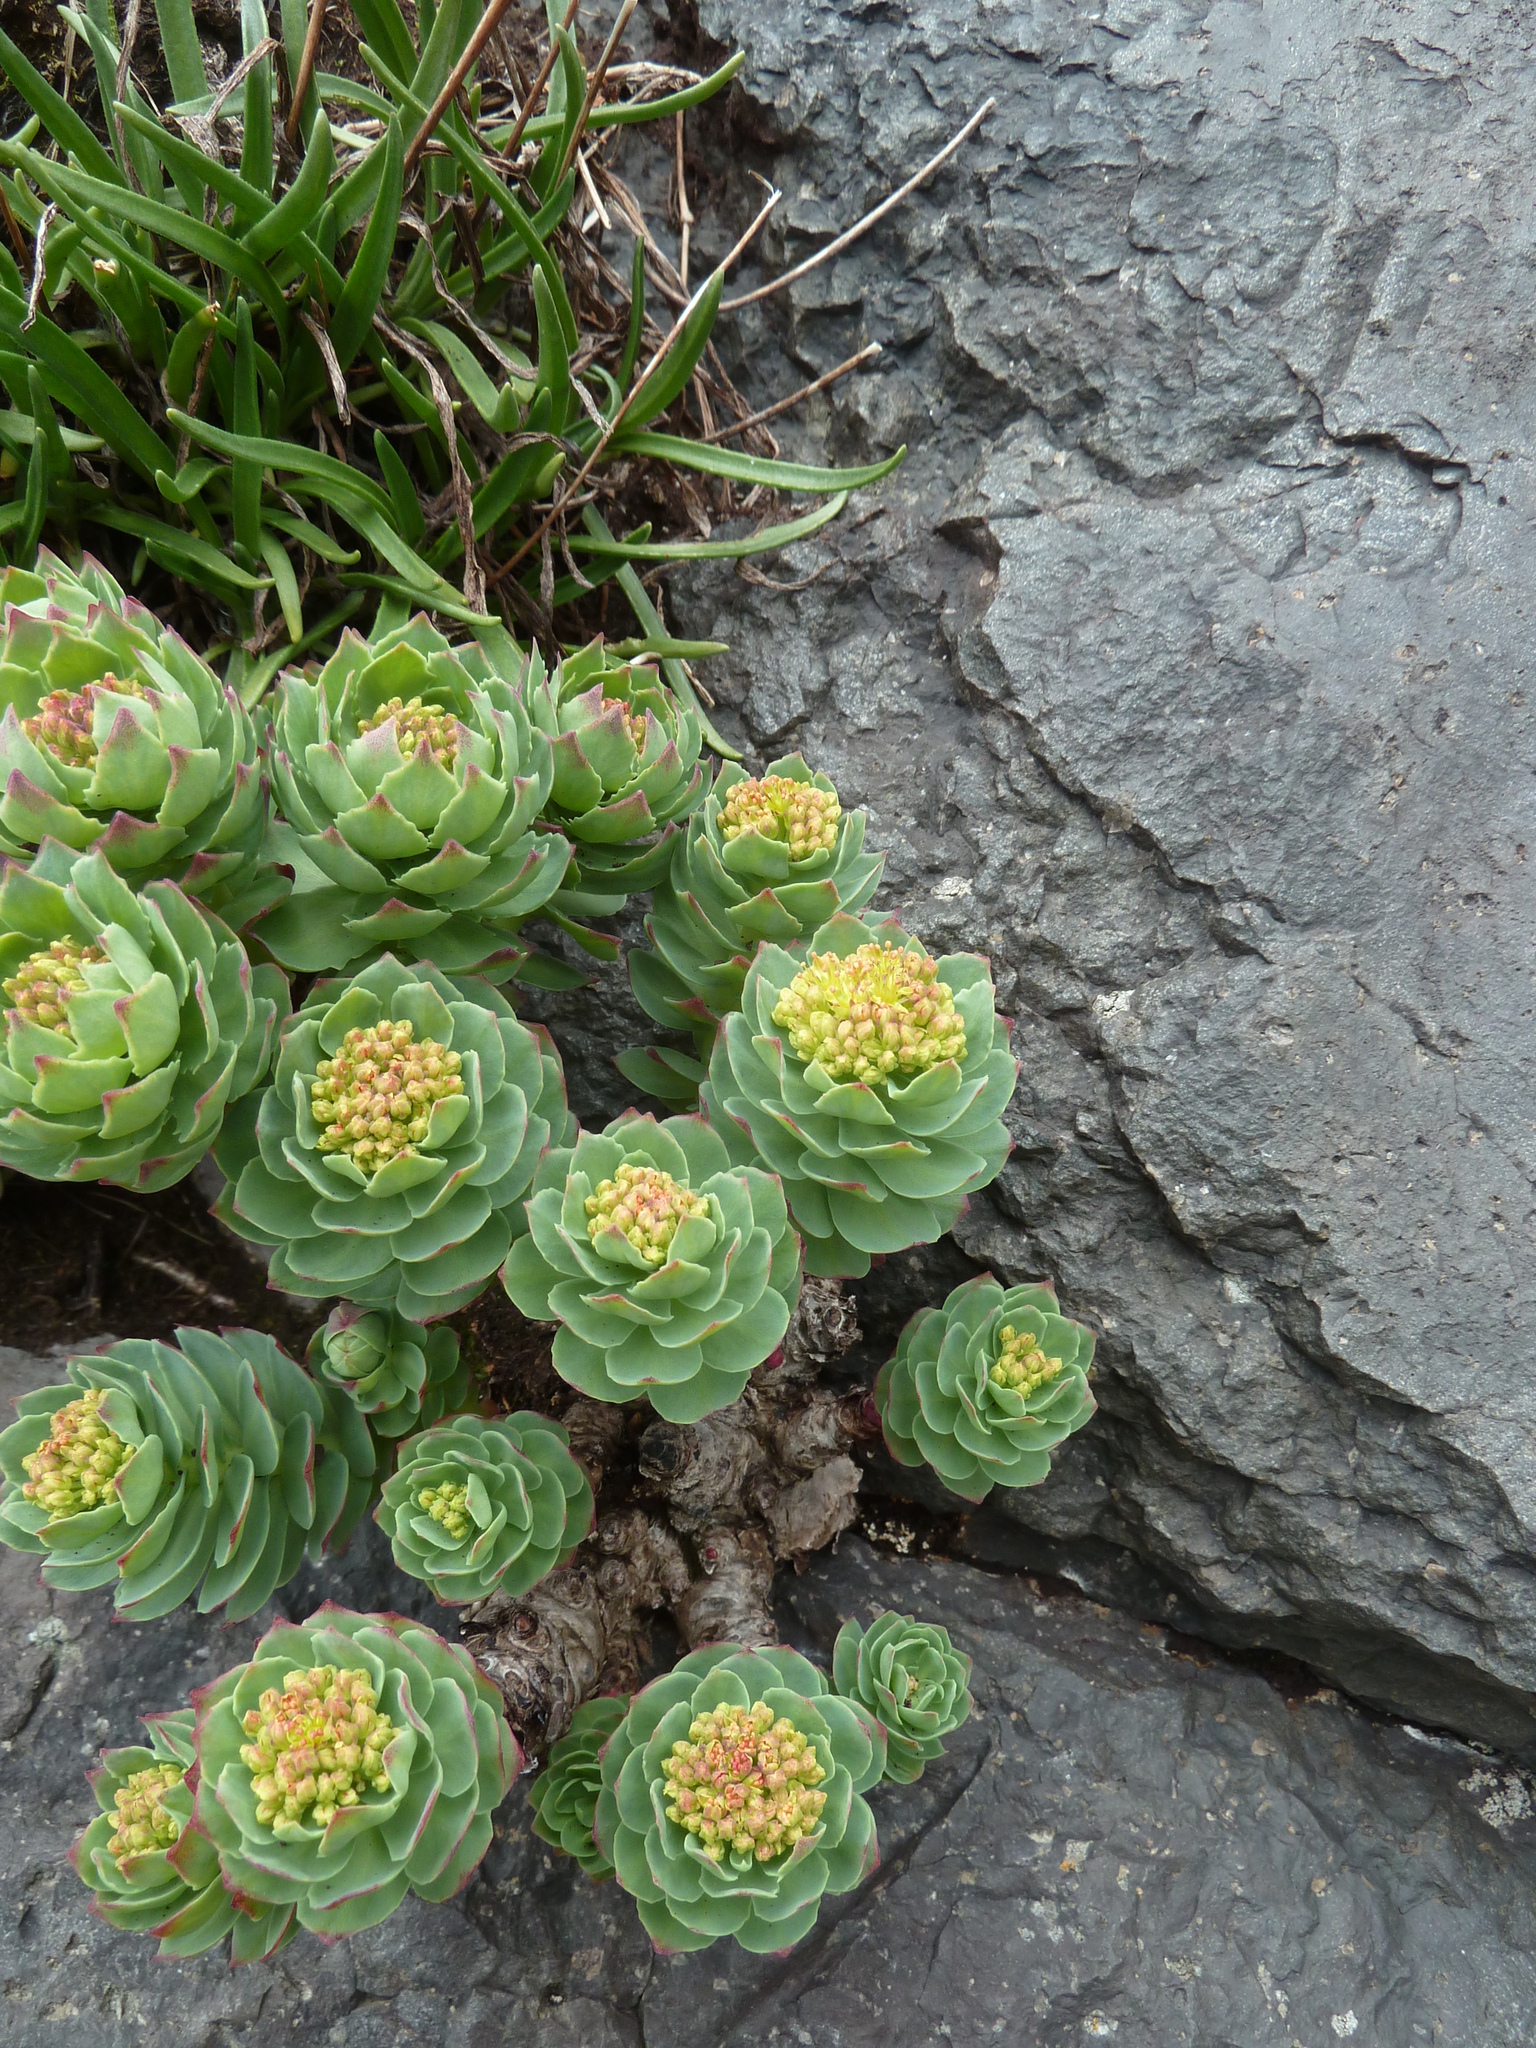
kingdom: Plantae
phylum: Tracheophyta
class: Magnoliopsida
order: Saxifragales
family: Crassulaceae
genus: Rhodiola
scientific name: Rhodiola rosea
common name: Roseroot
